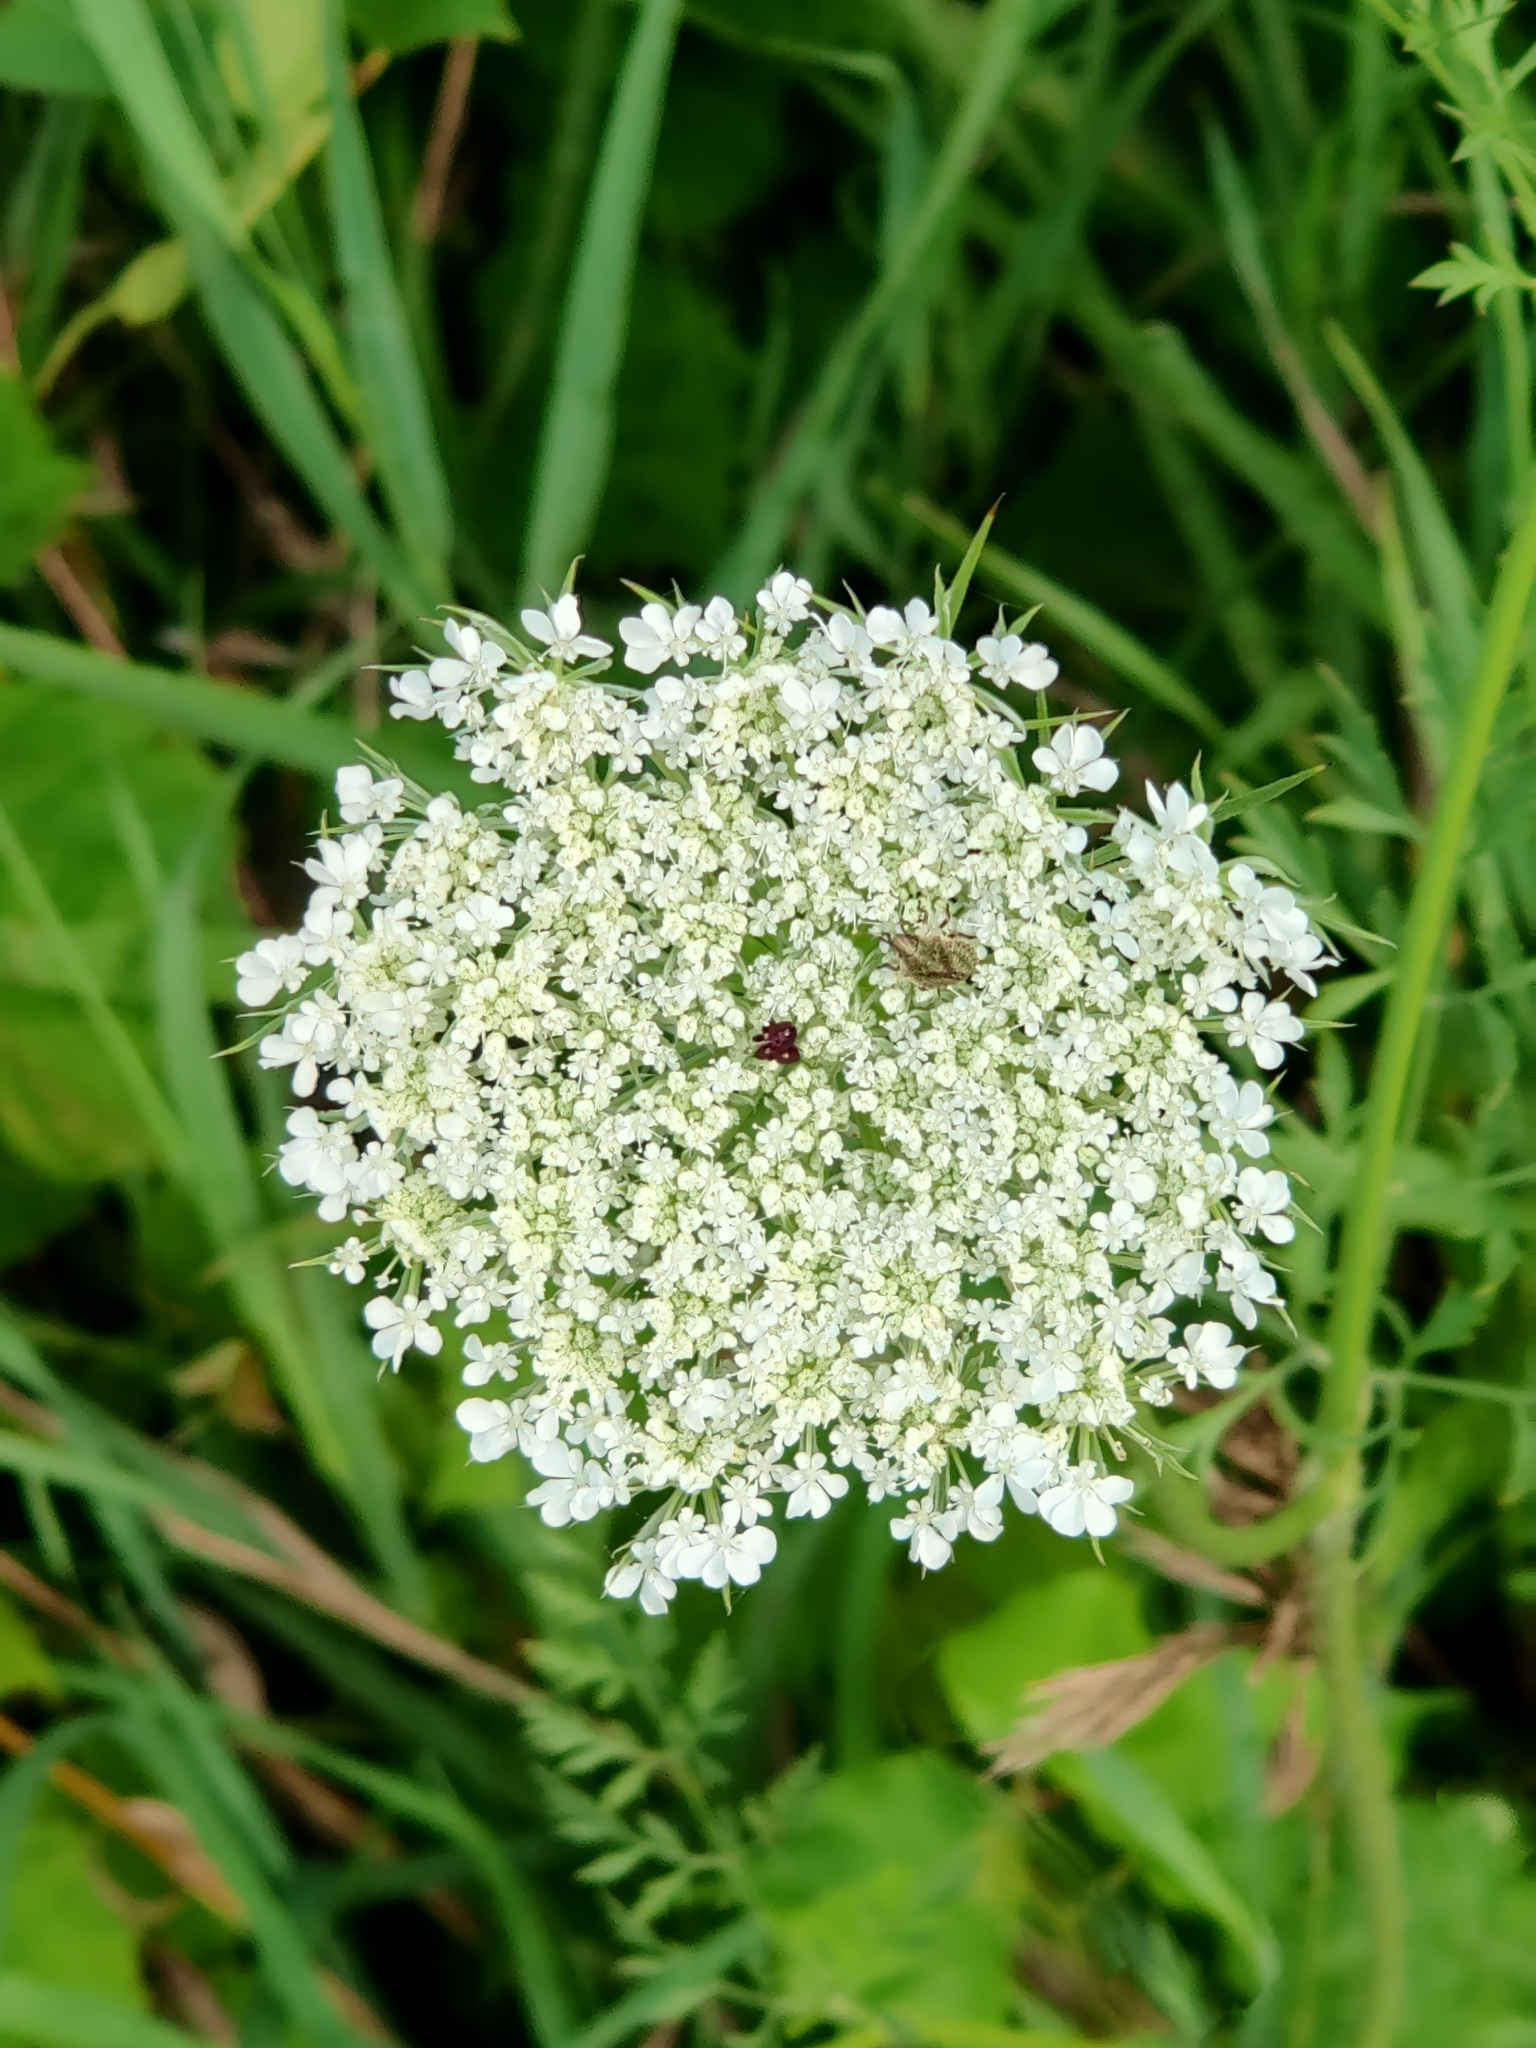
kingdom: Plantae
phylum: Tracheophyta
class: Magnoliopsida
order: Apiales
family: Apiaceae
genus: Daucus
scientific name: Daucus carota
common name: Wild carrot
